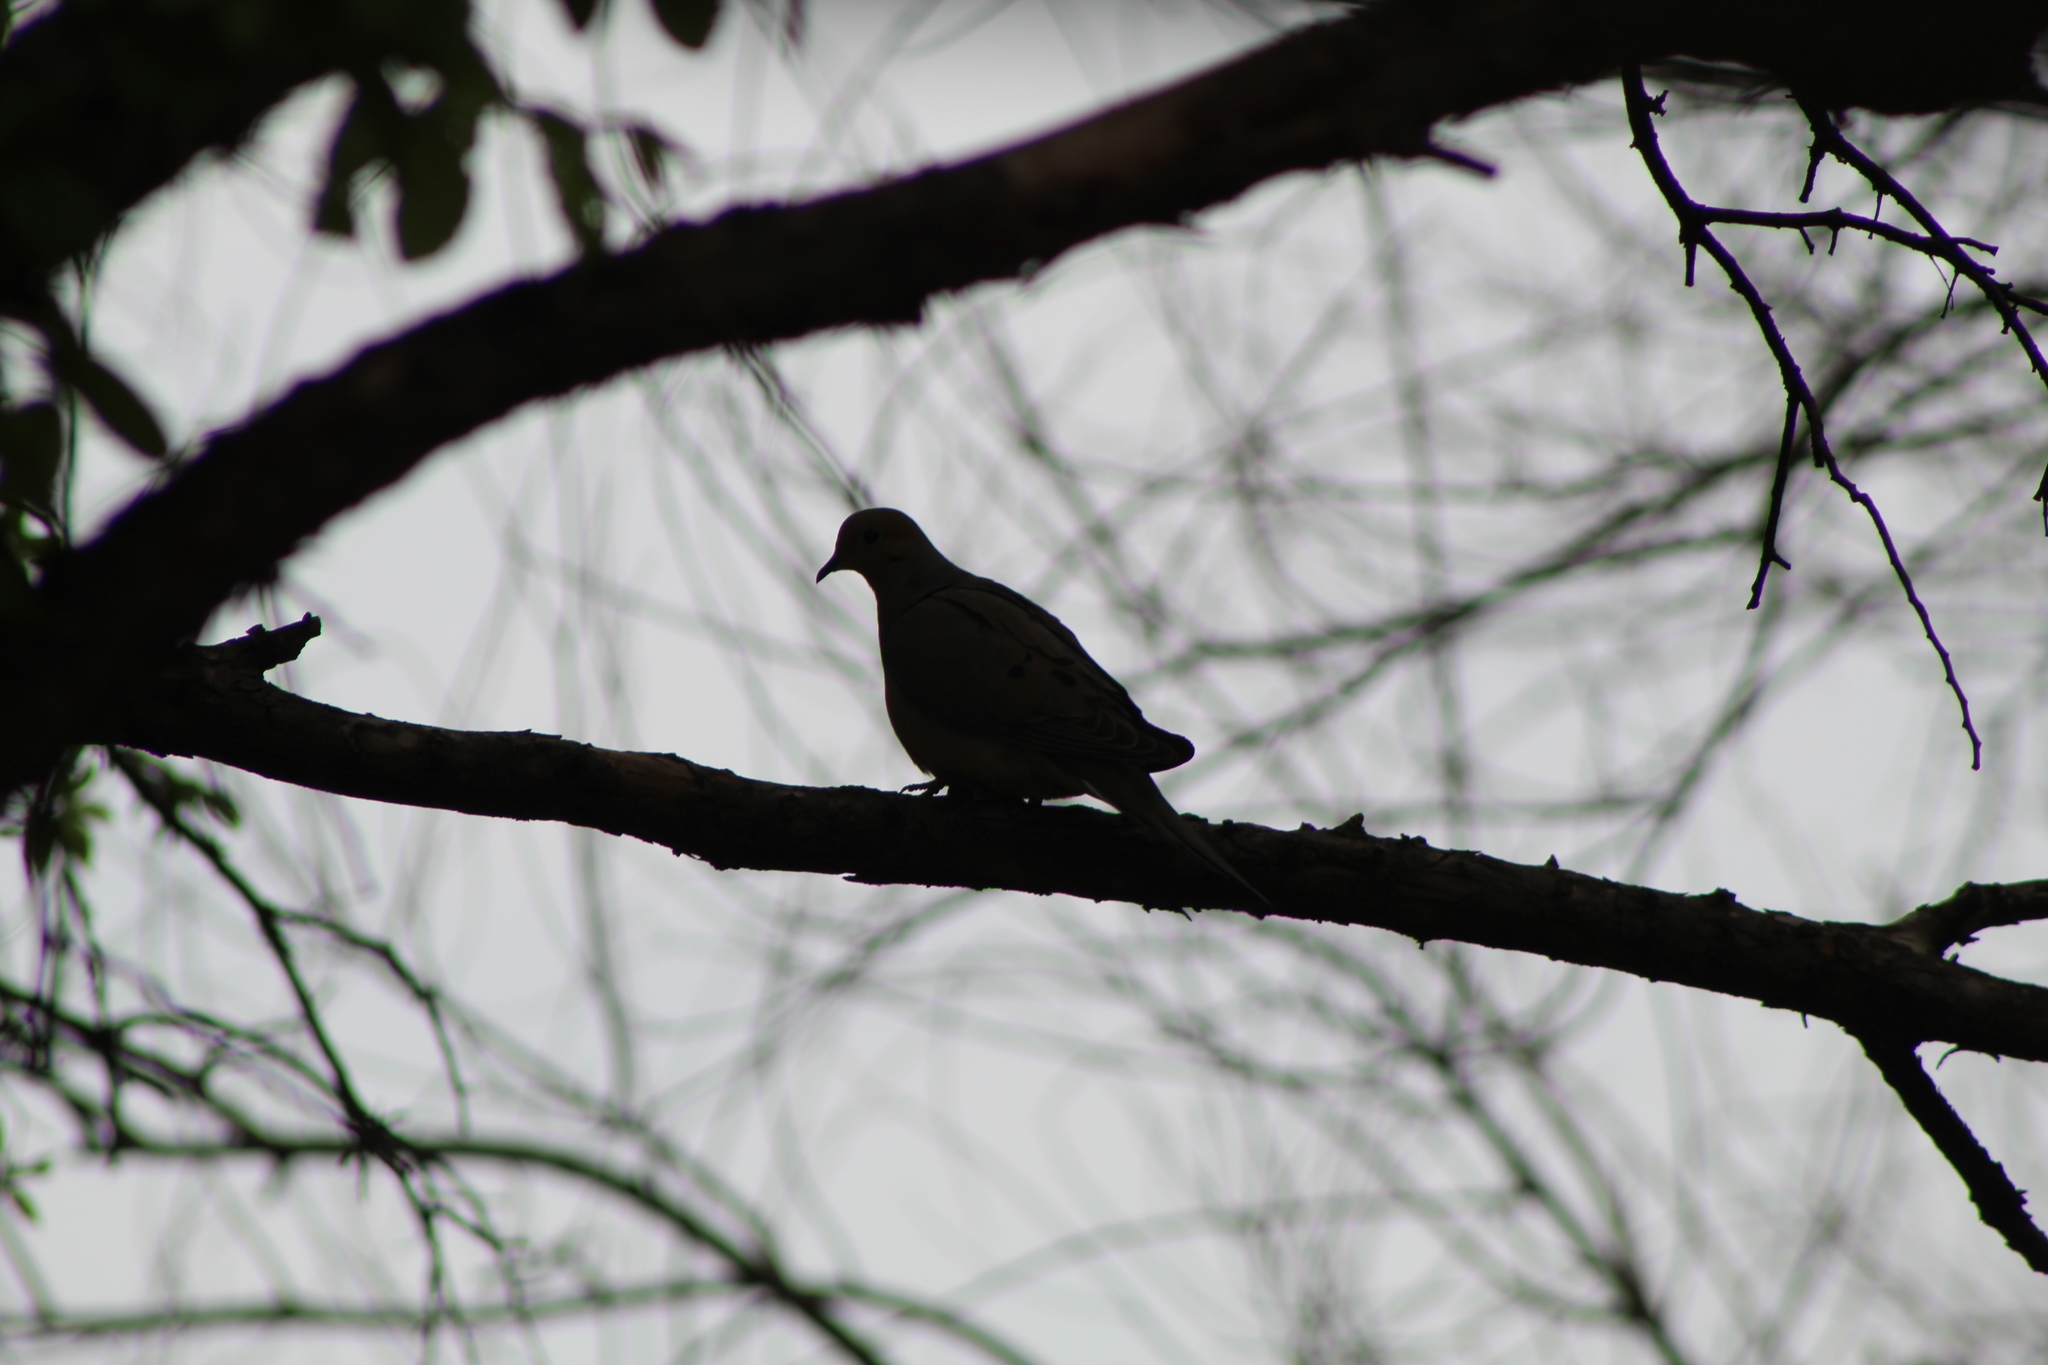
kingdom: Animalia
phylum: Chordata
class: Aves
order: Columbiformes
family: Columbidae
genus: Zenaida
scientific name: Zenaida macroura
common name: Mourning dove
